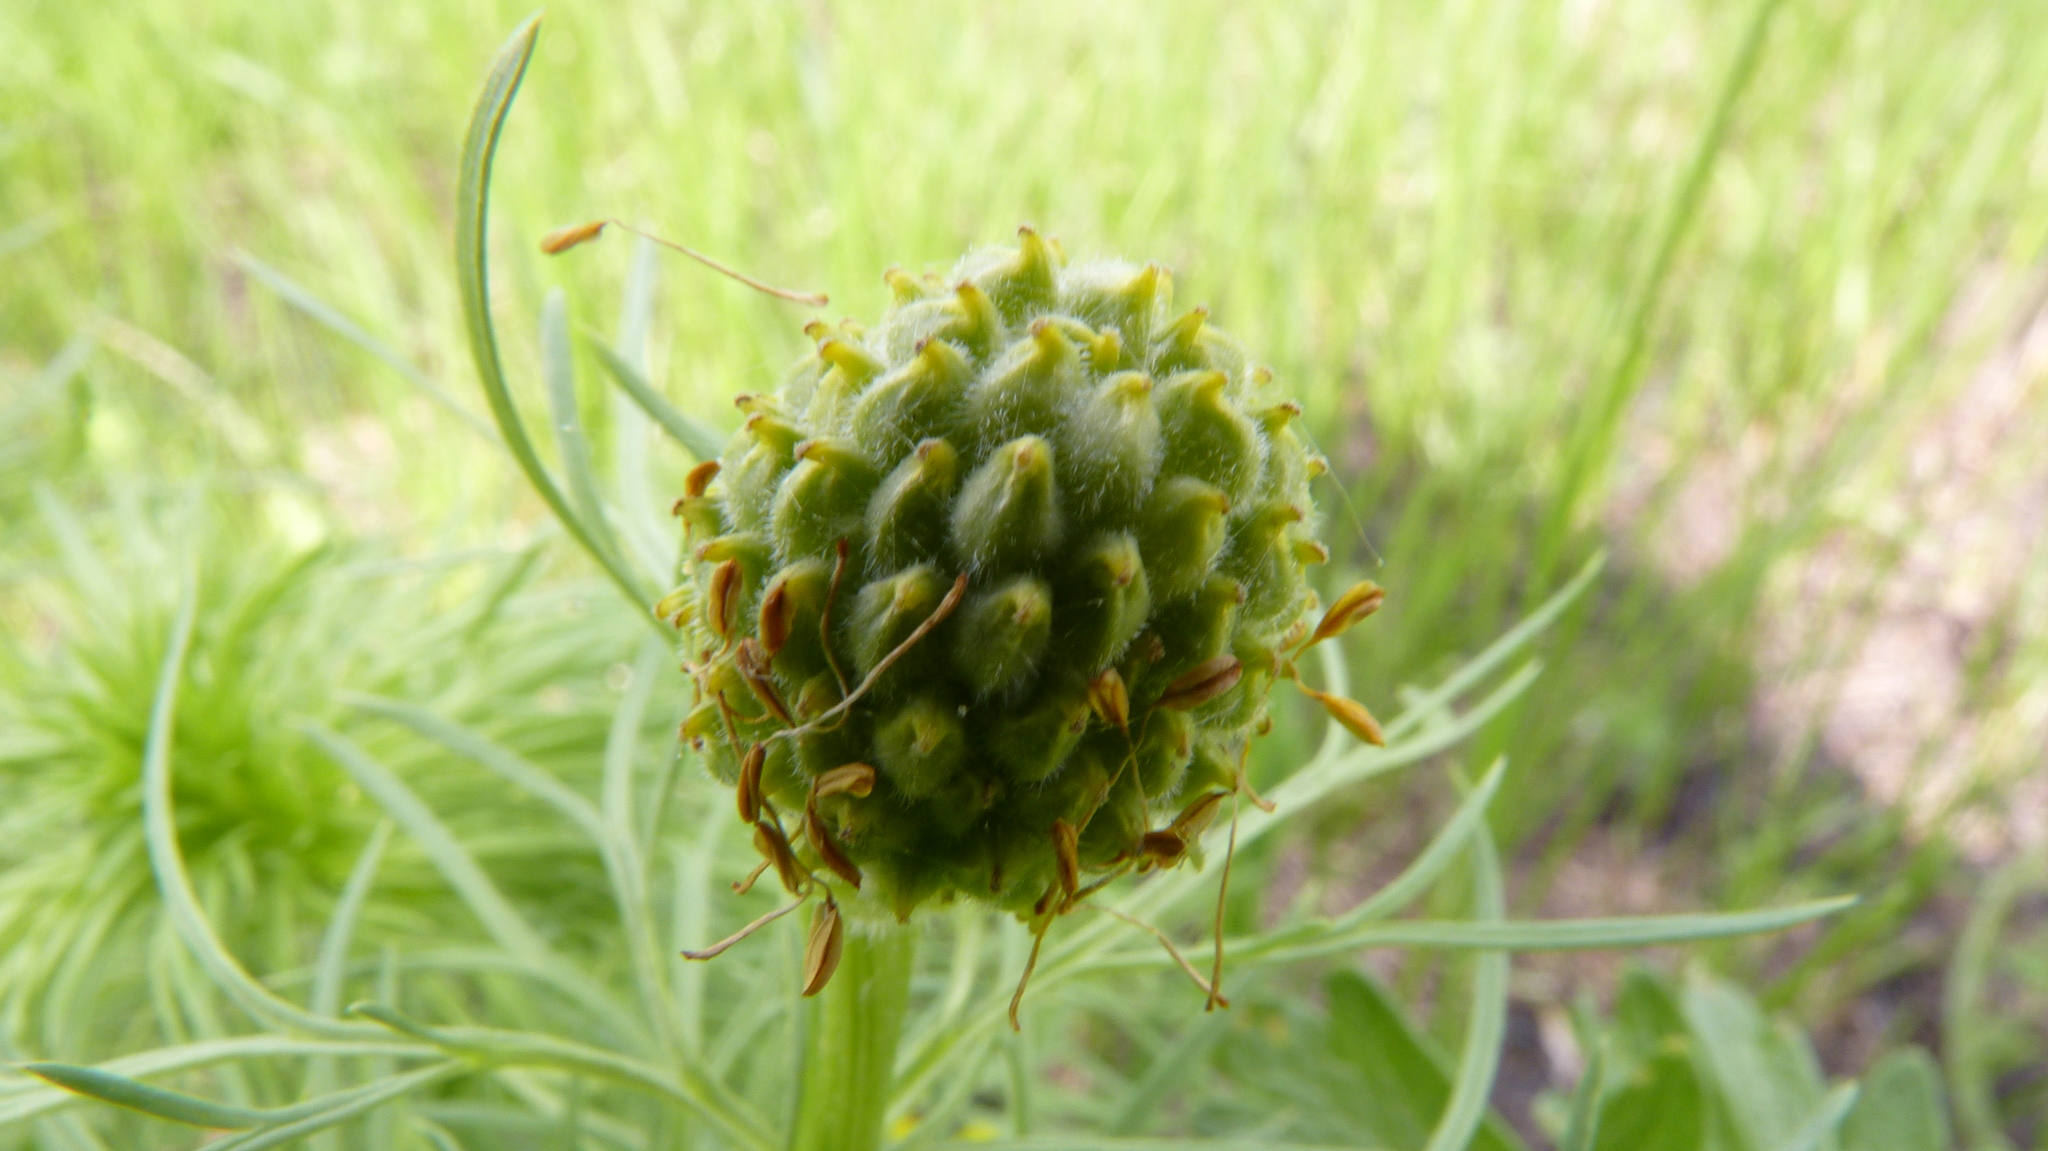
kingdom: Plantae
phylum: Tracheophyta
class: Magnoliopsida
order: Ranunculales
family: Ranunculaceae
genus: Adonis
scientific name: Adonis vernalis
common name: Yellow pheasants-eye
